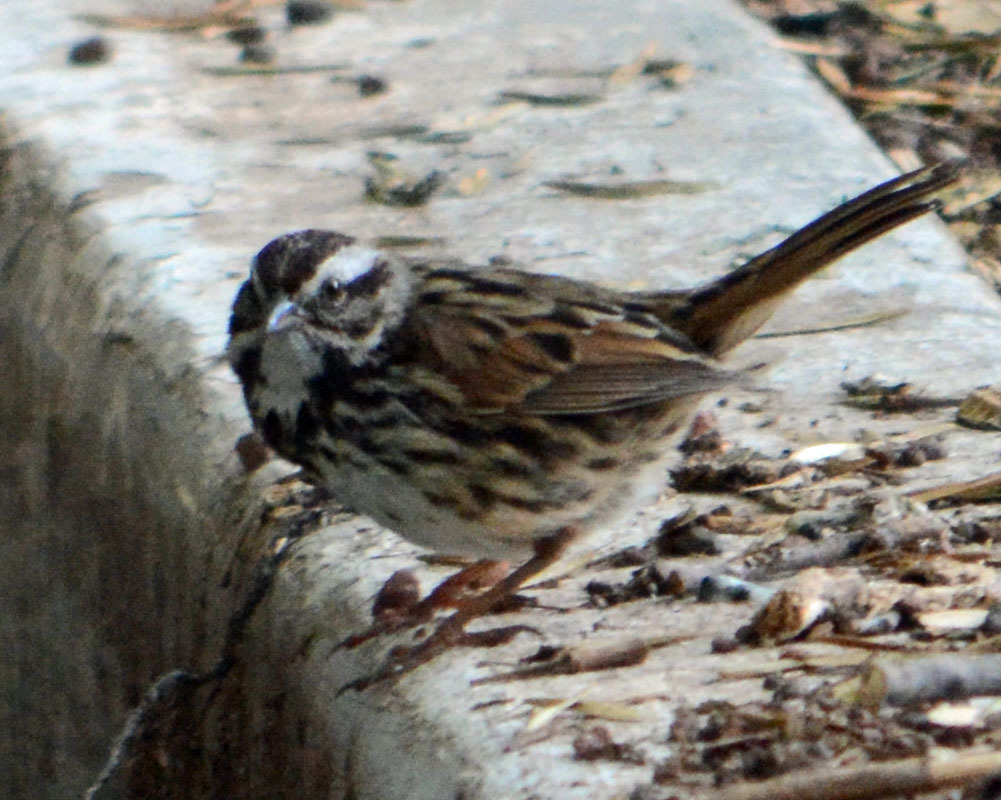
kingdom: Animalia
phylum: Chordata
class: Aves
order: Passeriformes
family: Passerellidae
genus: Melospiza
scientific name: Melospiza melodia
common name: Song sparrow
